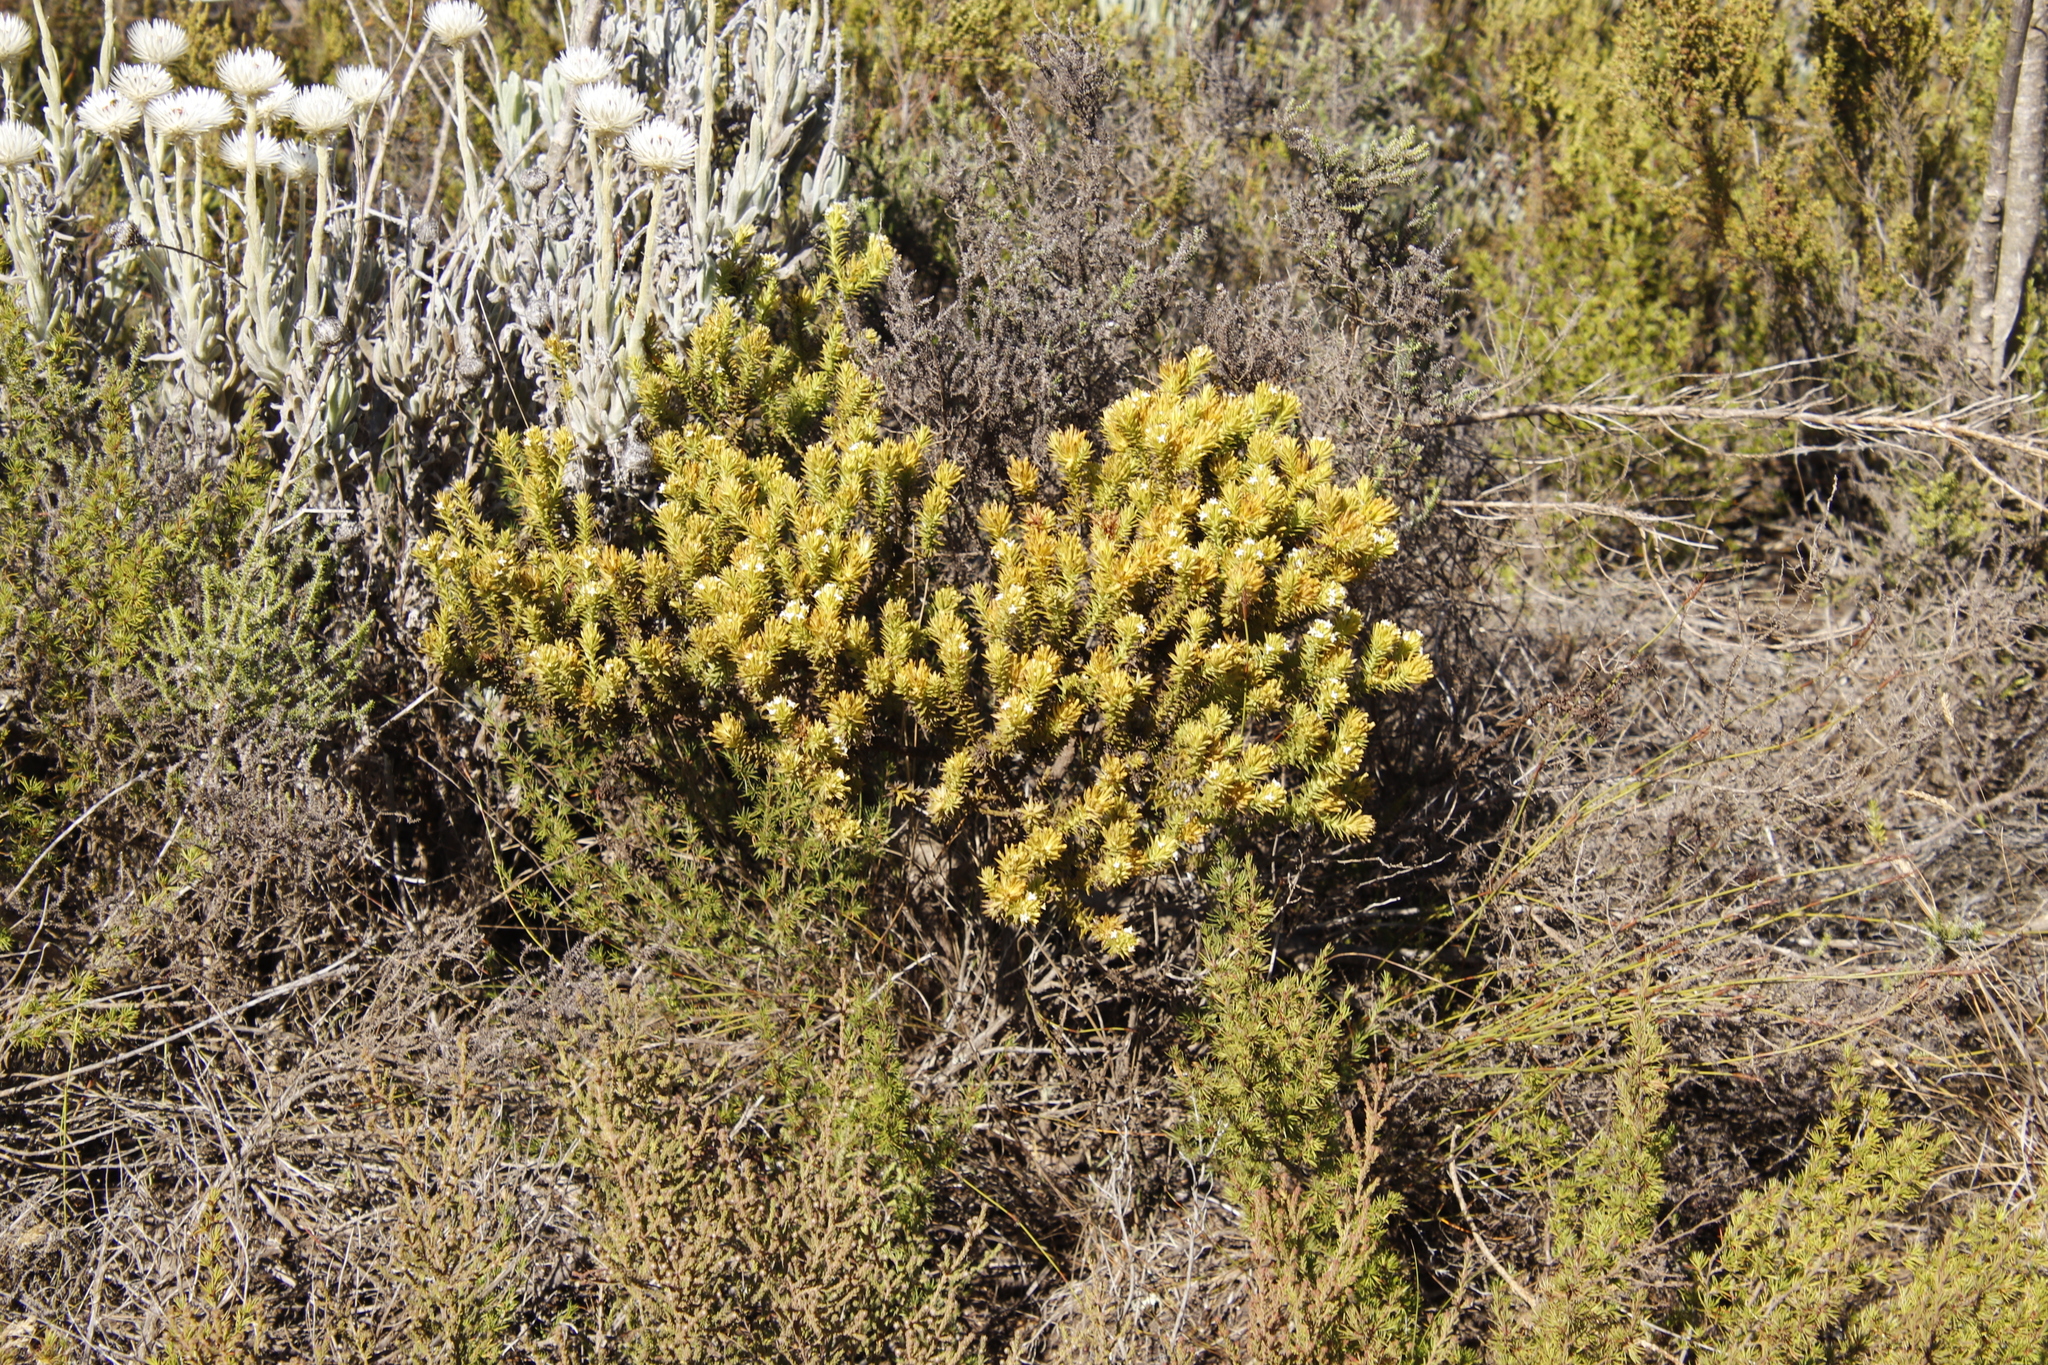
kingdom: Plantae
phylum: Tracheophyta
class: Magnoliopsida
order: Santalales
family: Thesiaceae
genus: Thesium
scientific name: Thesium viridifolium
